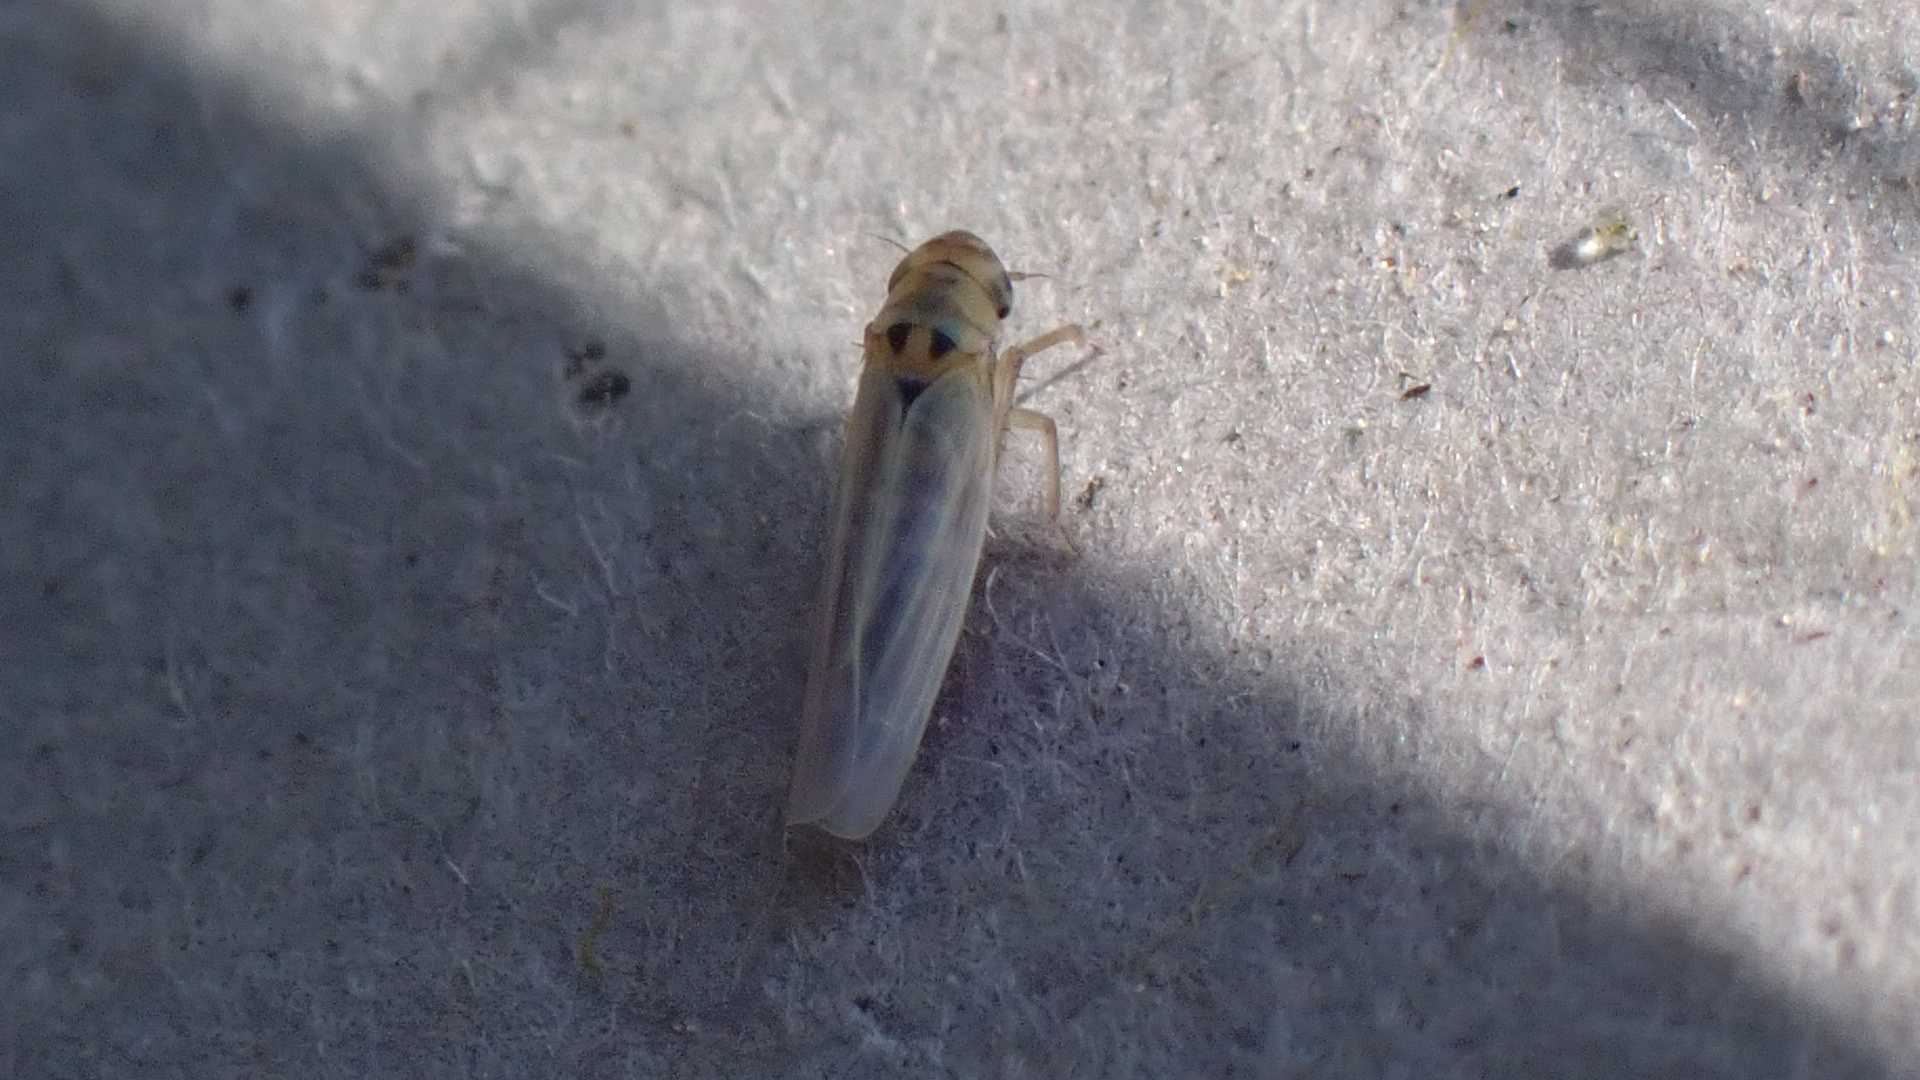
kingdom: Animalia
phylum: Arthropoda
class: Insecta
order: Hemiptera
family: Cicadellidae
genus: Zyginidia
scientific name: Zyginidia scutellaris
